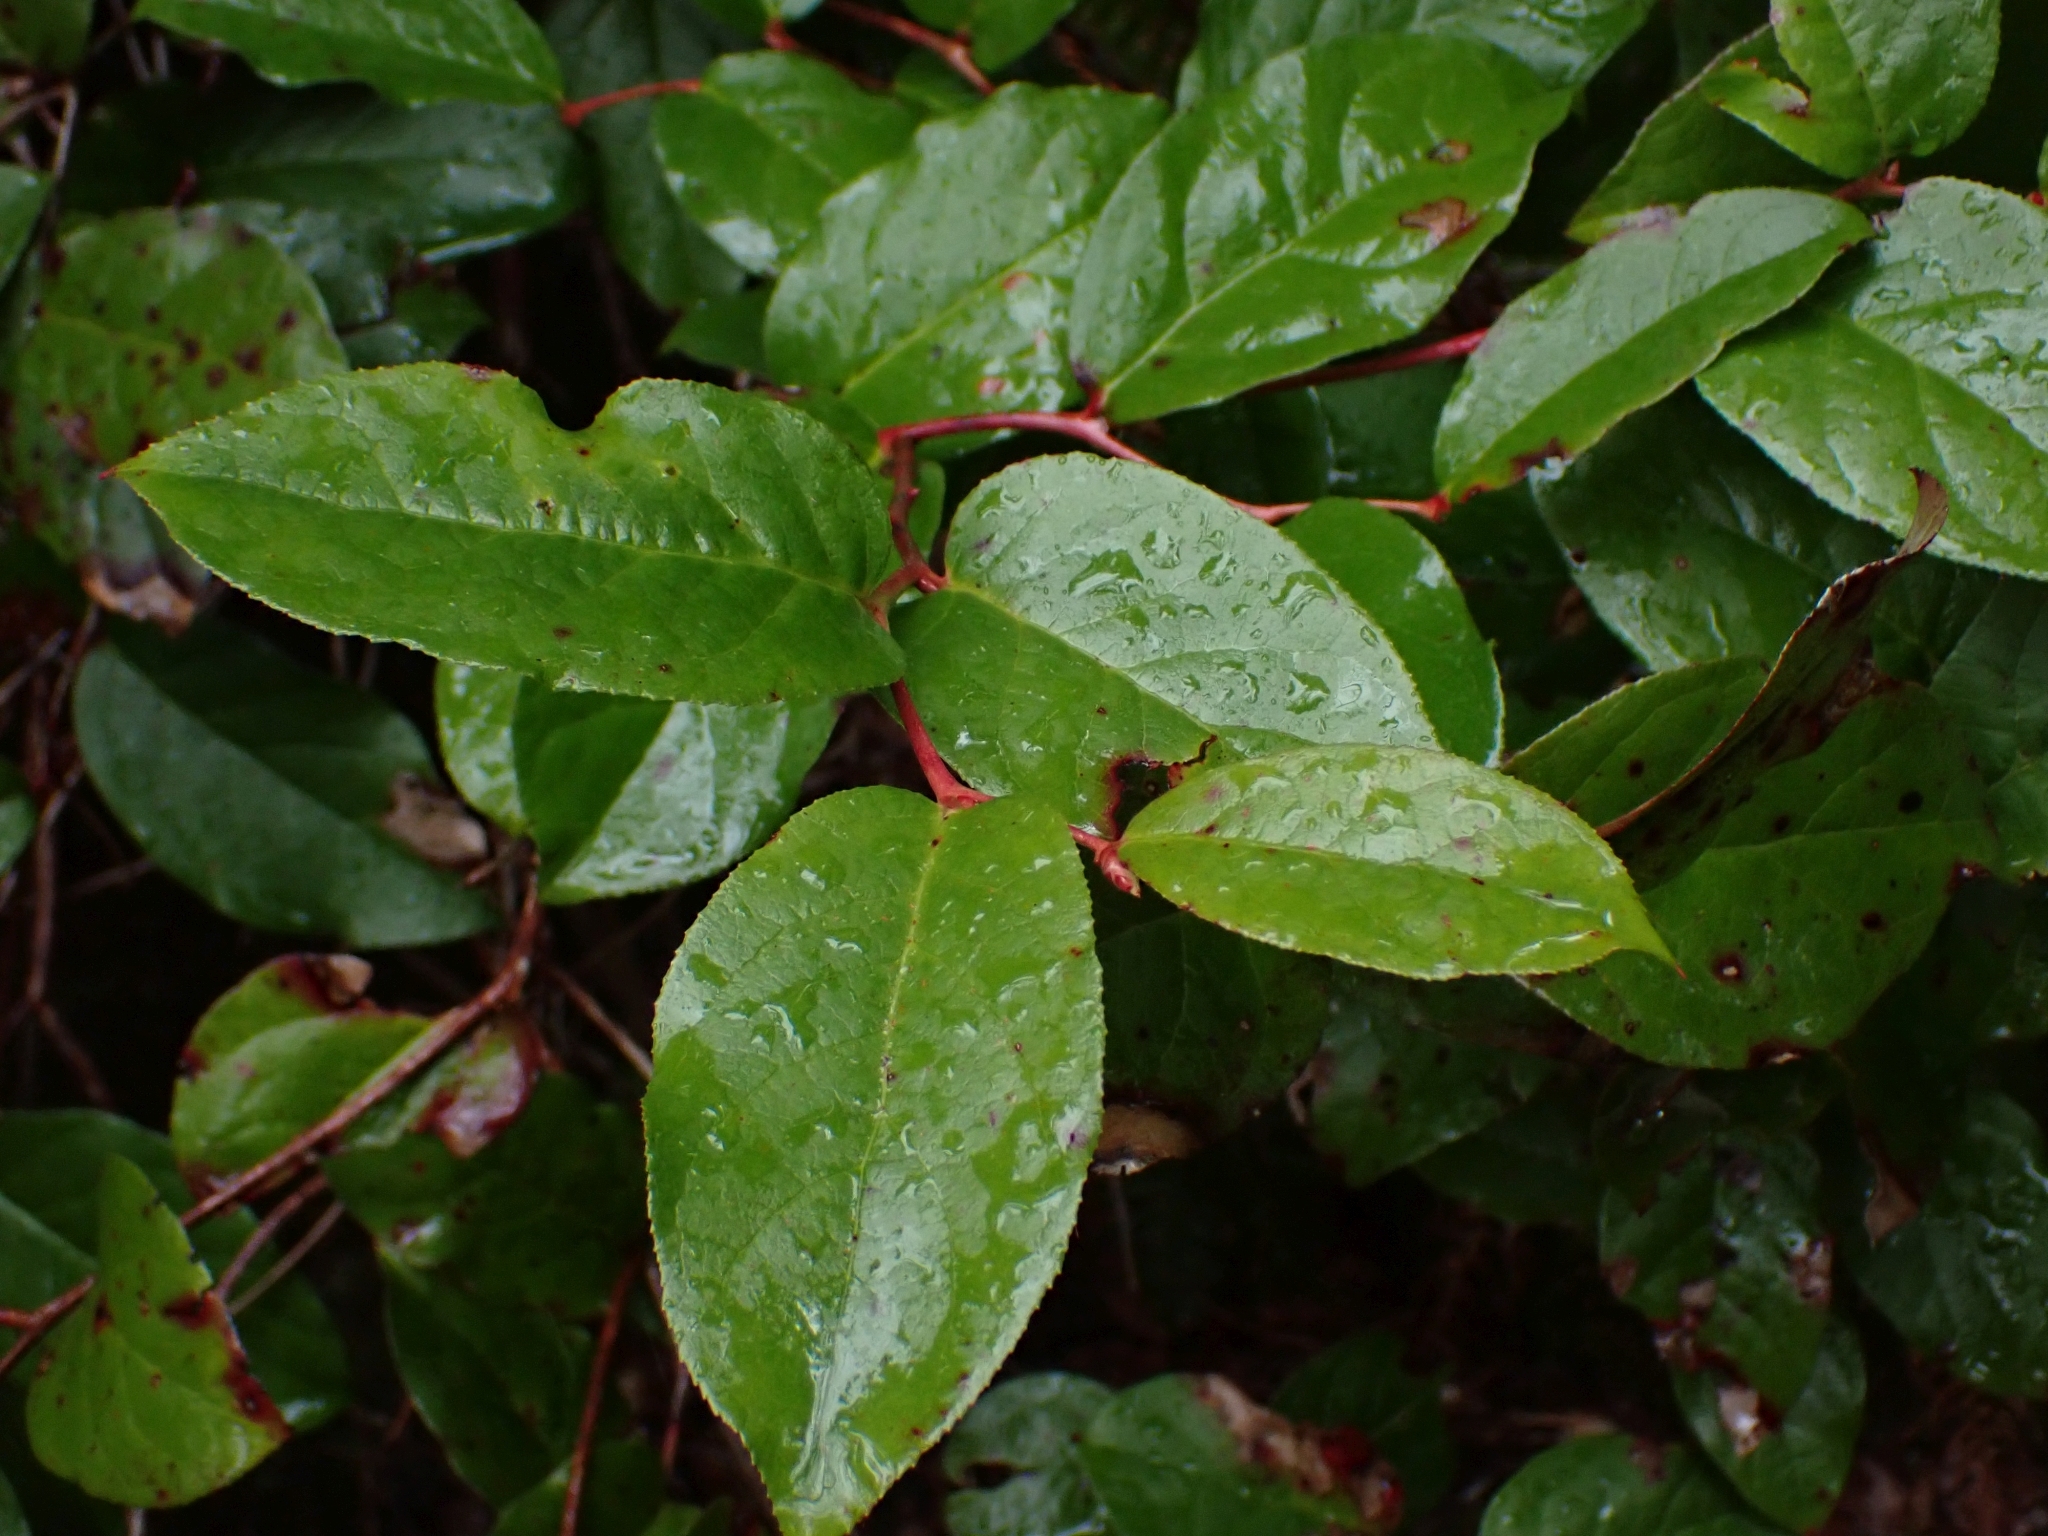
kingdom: Plantae
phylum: Tracheophyta
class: Magnoliopsida
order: Ericales
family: Ericaceae
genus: Gaultheria
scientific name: Gaultheria shallon
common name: Shallon
